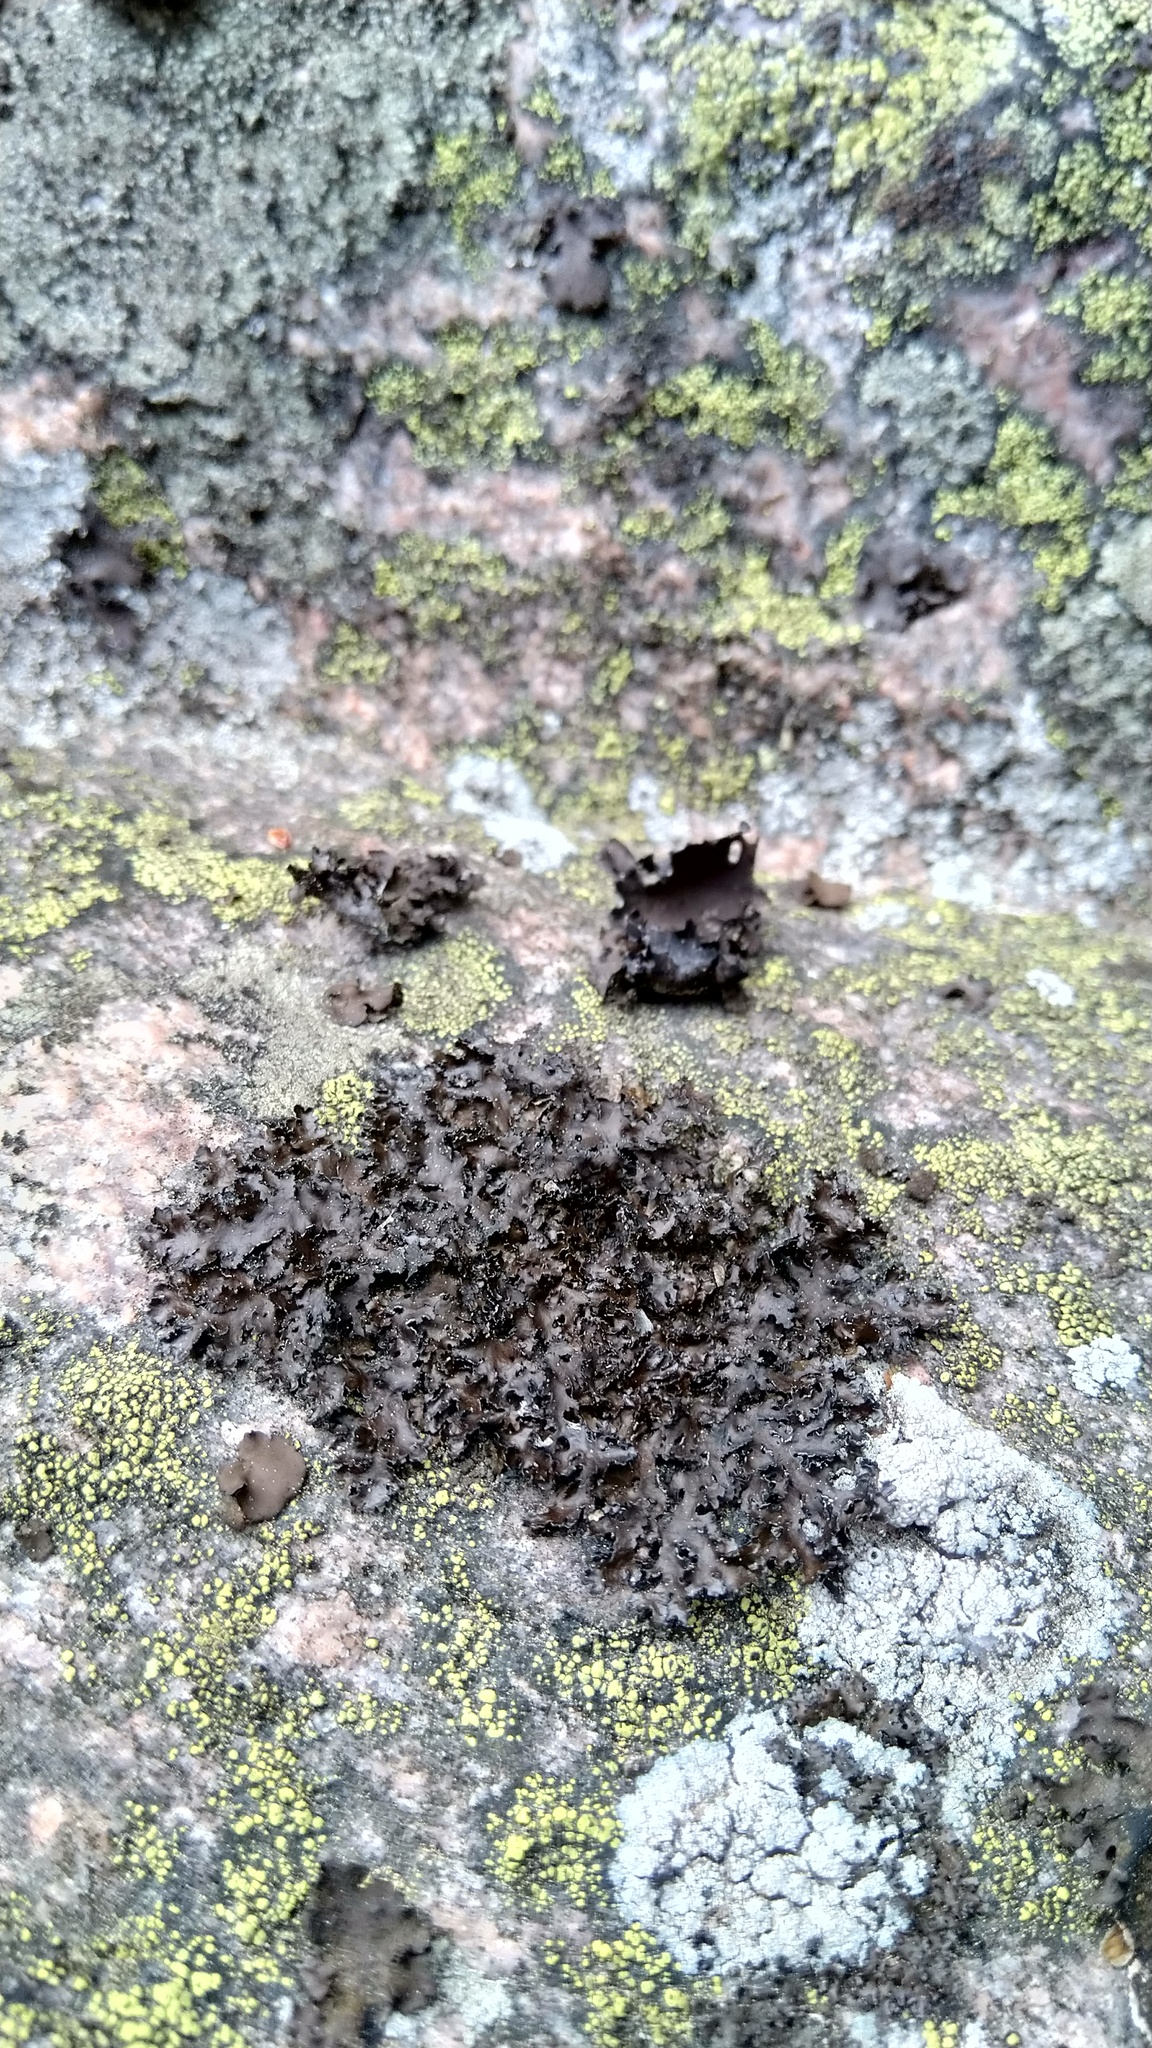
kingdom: Fungi
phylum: Ascomycota
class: Lecanoromycetes
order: Lecanorales
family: Parmeliaceae
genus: Melanelia
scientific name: Melanelia hepatizon
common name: Rimmed camouflage lichen
